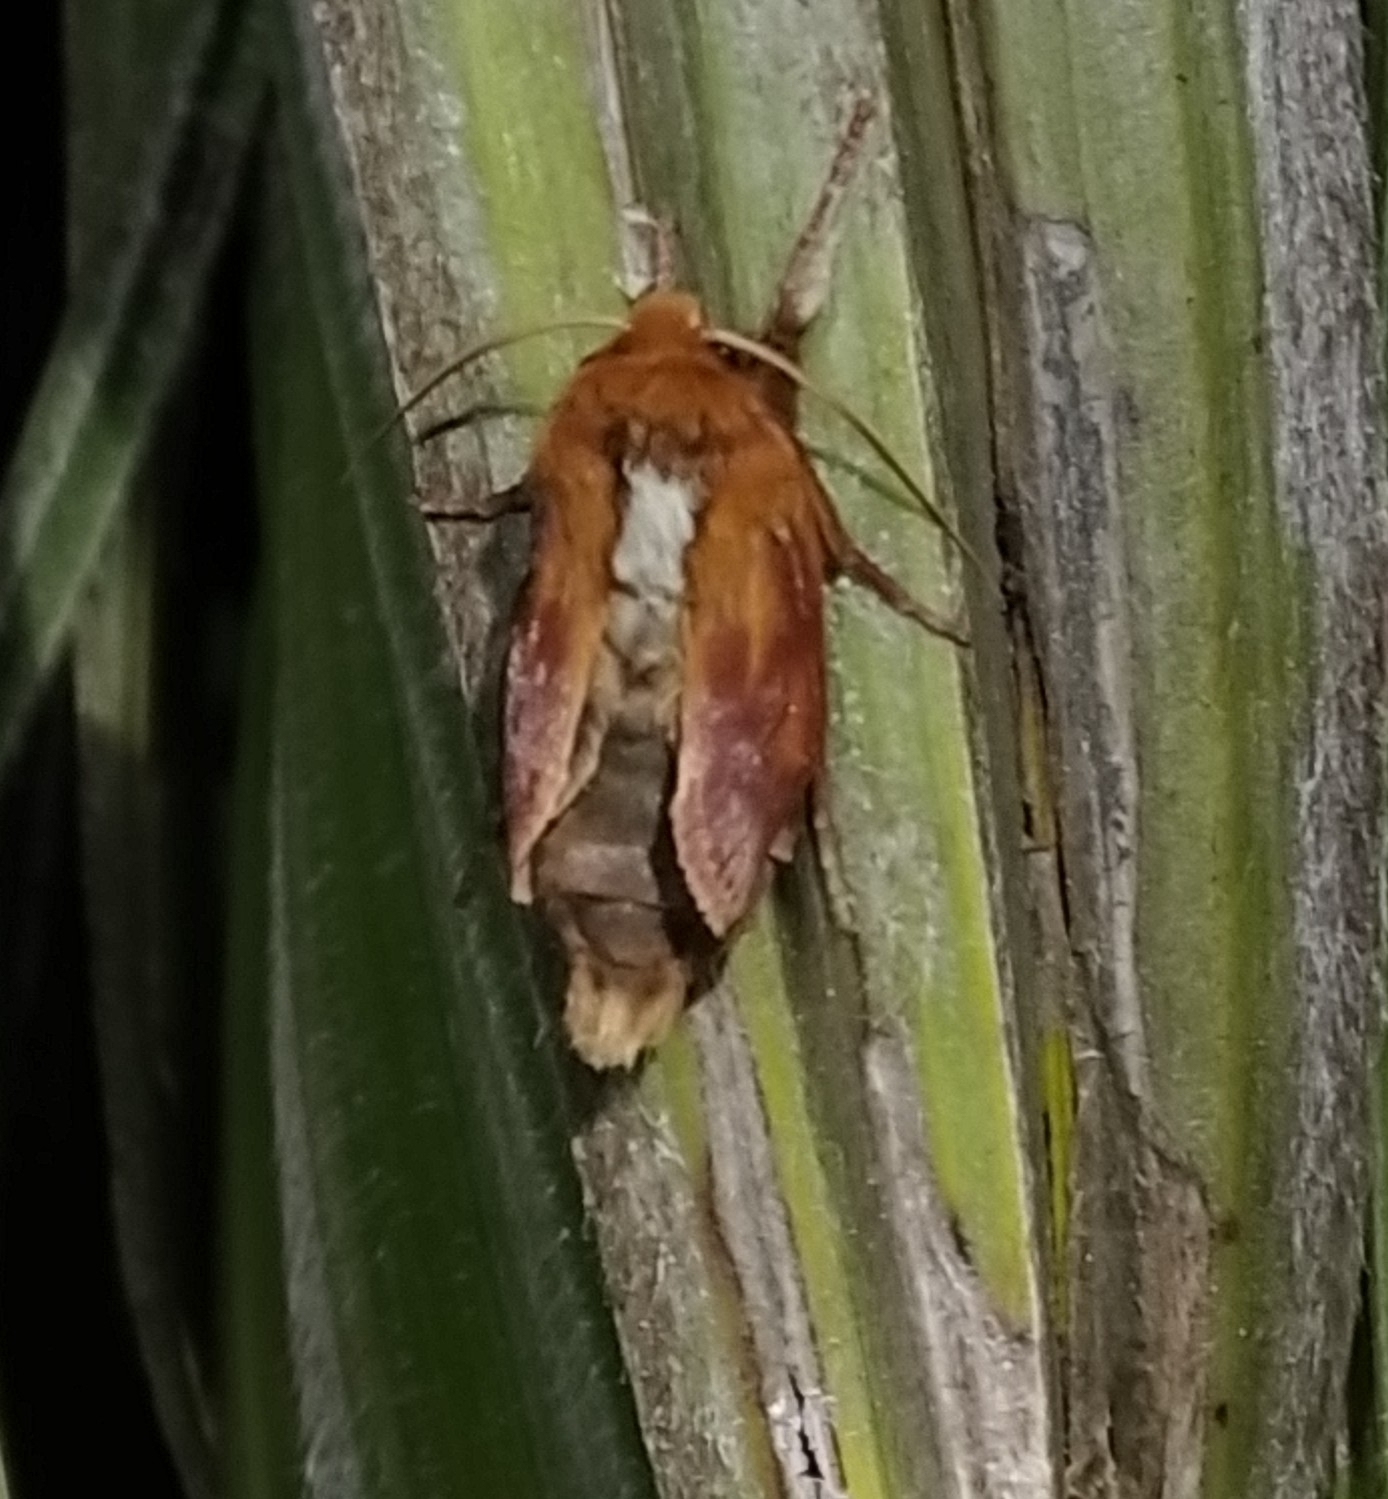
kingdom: Animalia
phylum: Arthropoda
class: Insecta
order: Lepidoptera
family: Noctuidae
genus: Ichneutica
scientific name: Ichneutica
